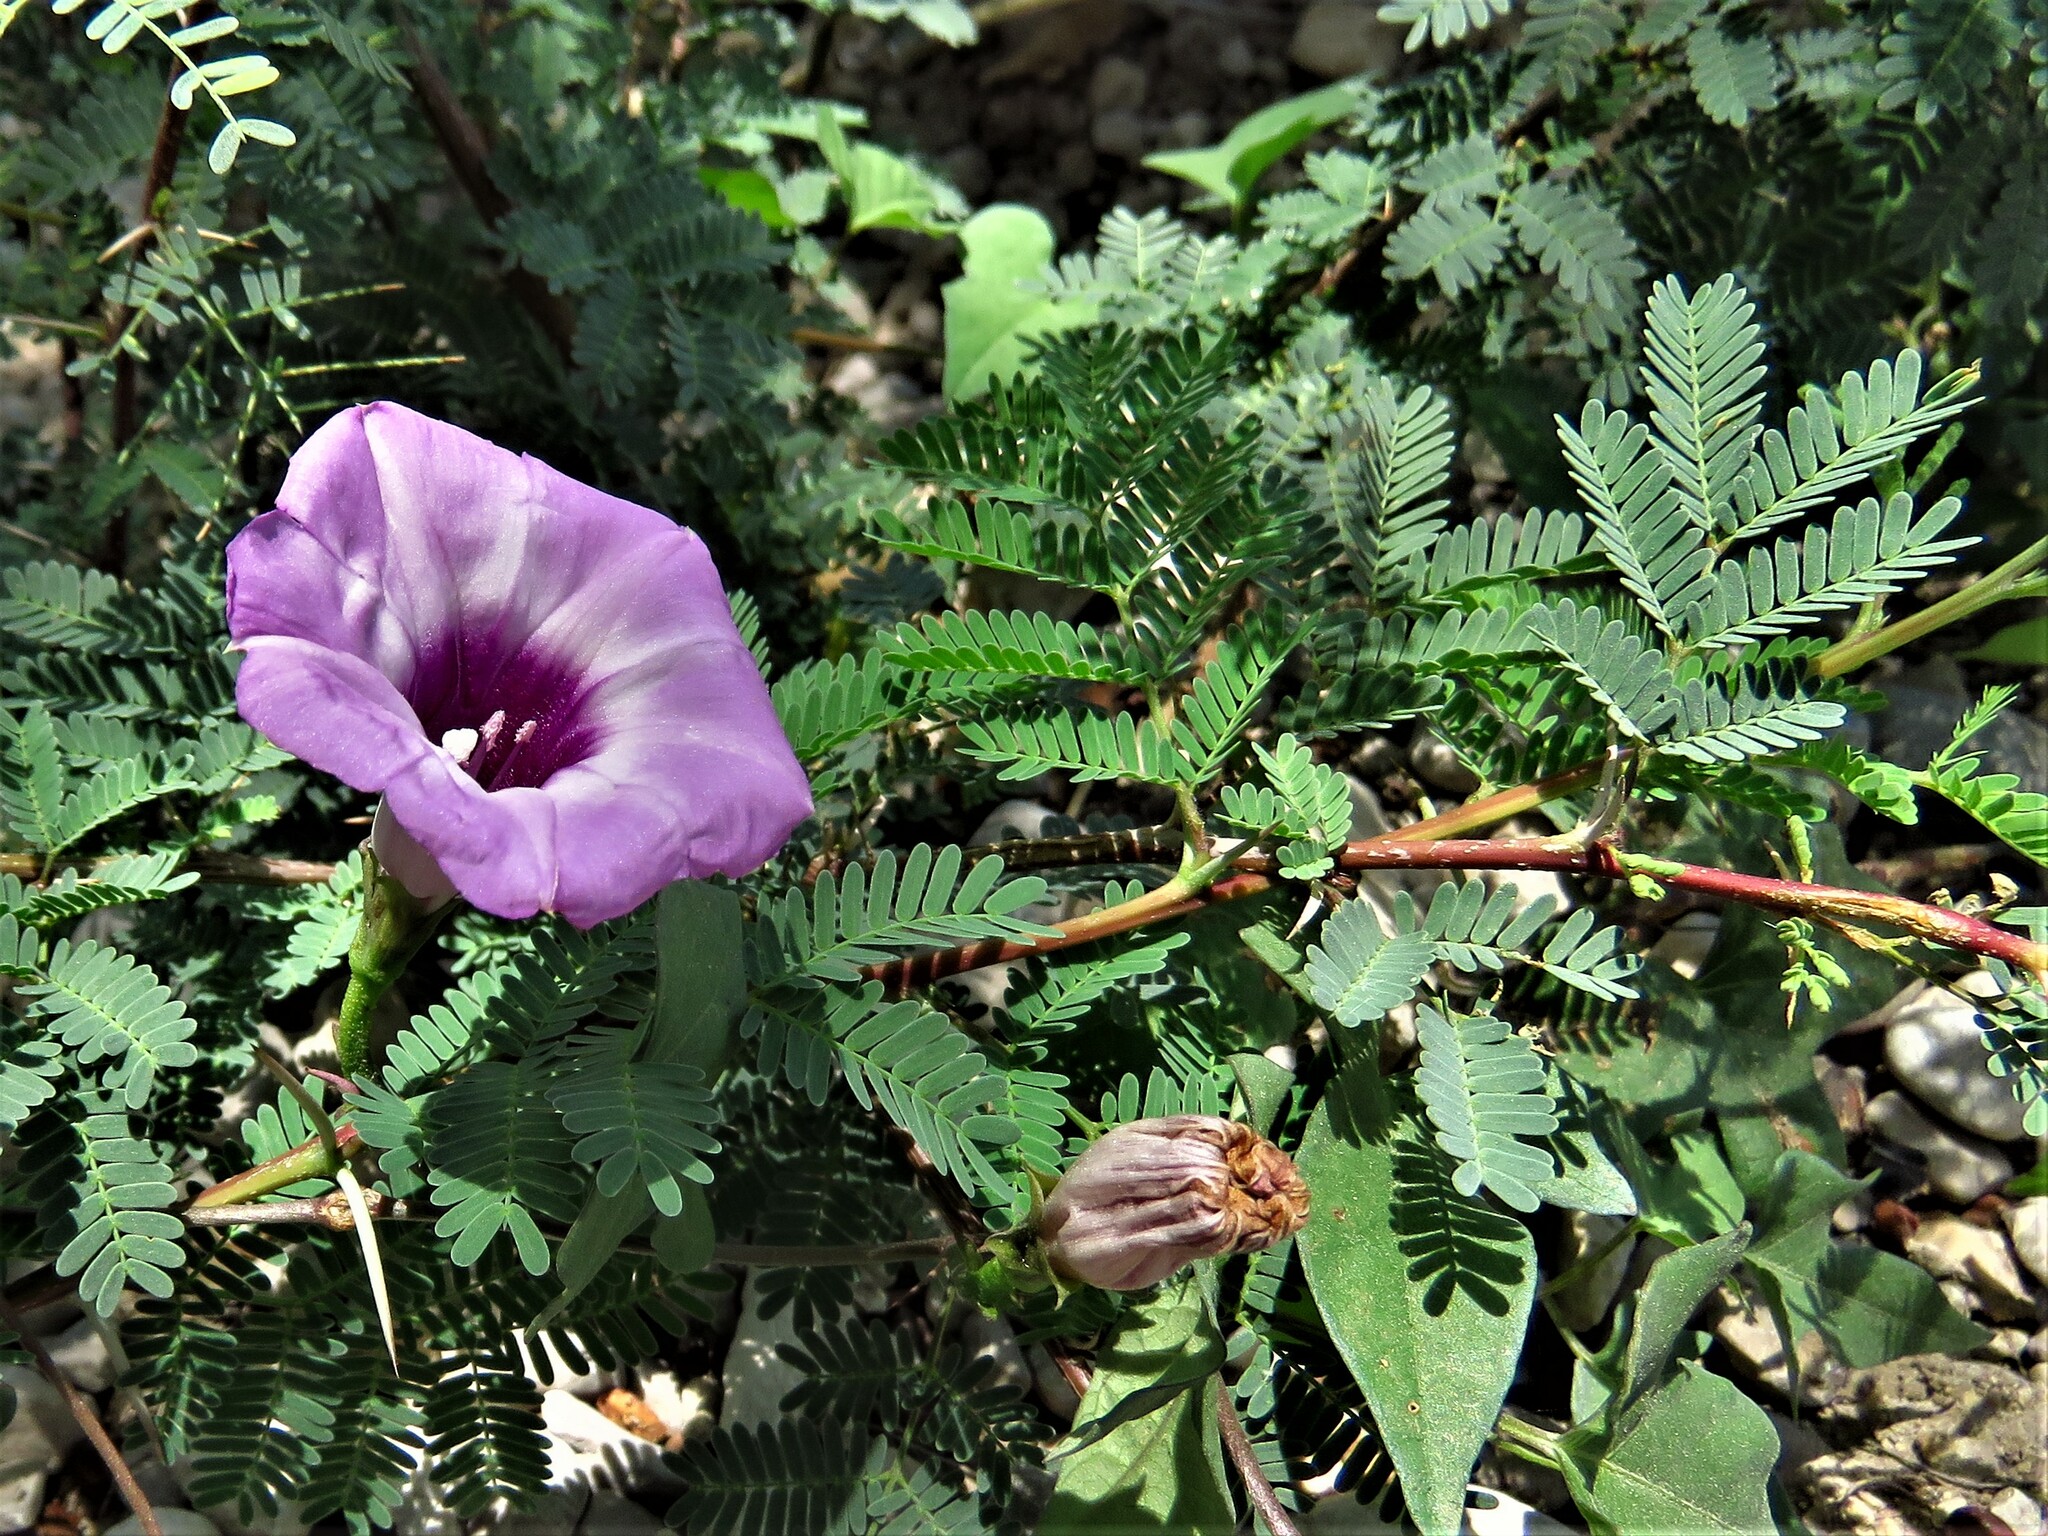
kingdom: Plantae
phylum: Tracheophyta
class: Magnoliopsida
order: Solanales
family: Convolvulaceae
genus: Ipomoea
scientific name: Ipomoea cordatotriloba
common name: Cotton morning glory
